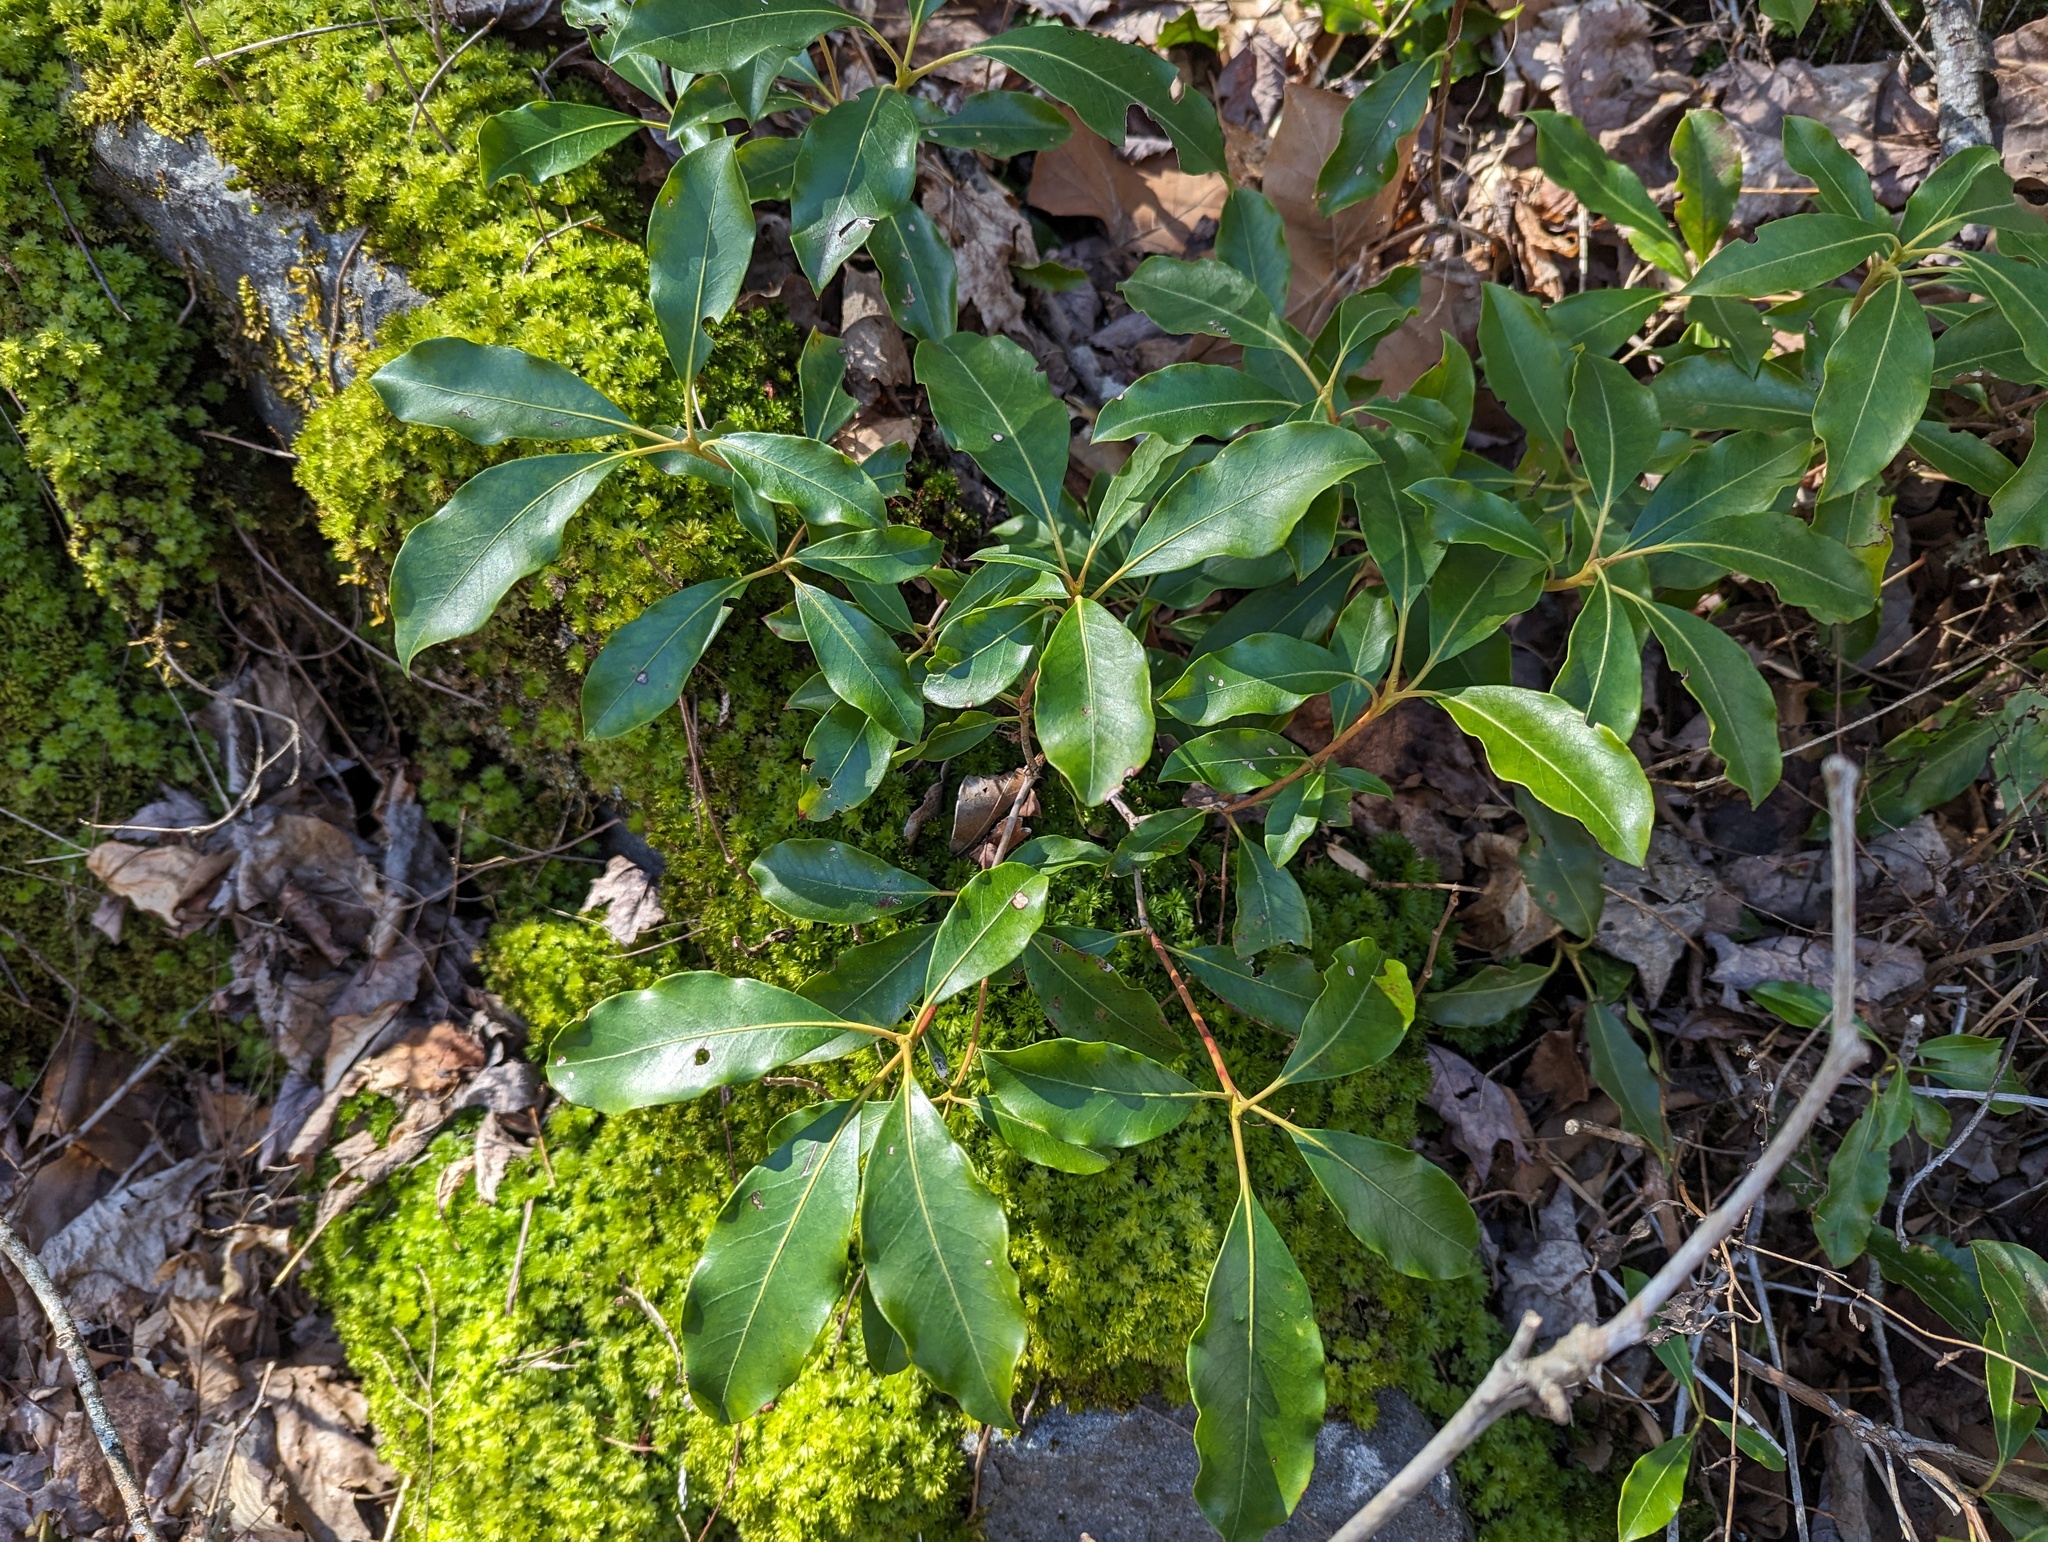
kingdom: Plantae
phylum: Tracheophyta
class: Magnoliopsida
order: Ericales
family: Ericaceae
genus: Kalmia
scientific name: Kalmia latifolia
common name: Mountain-laurel
